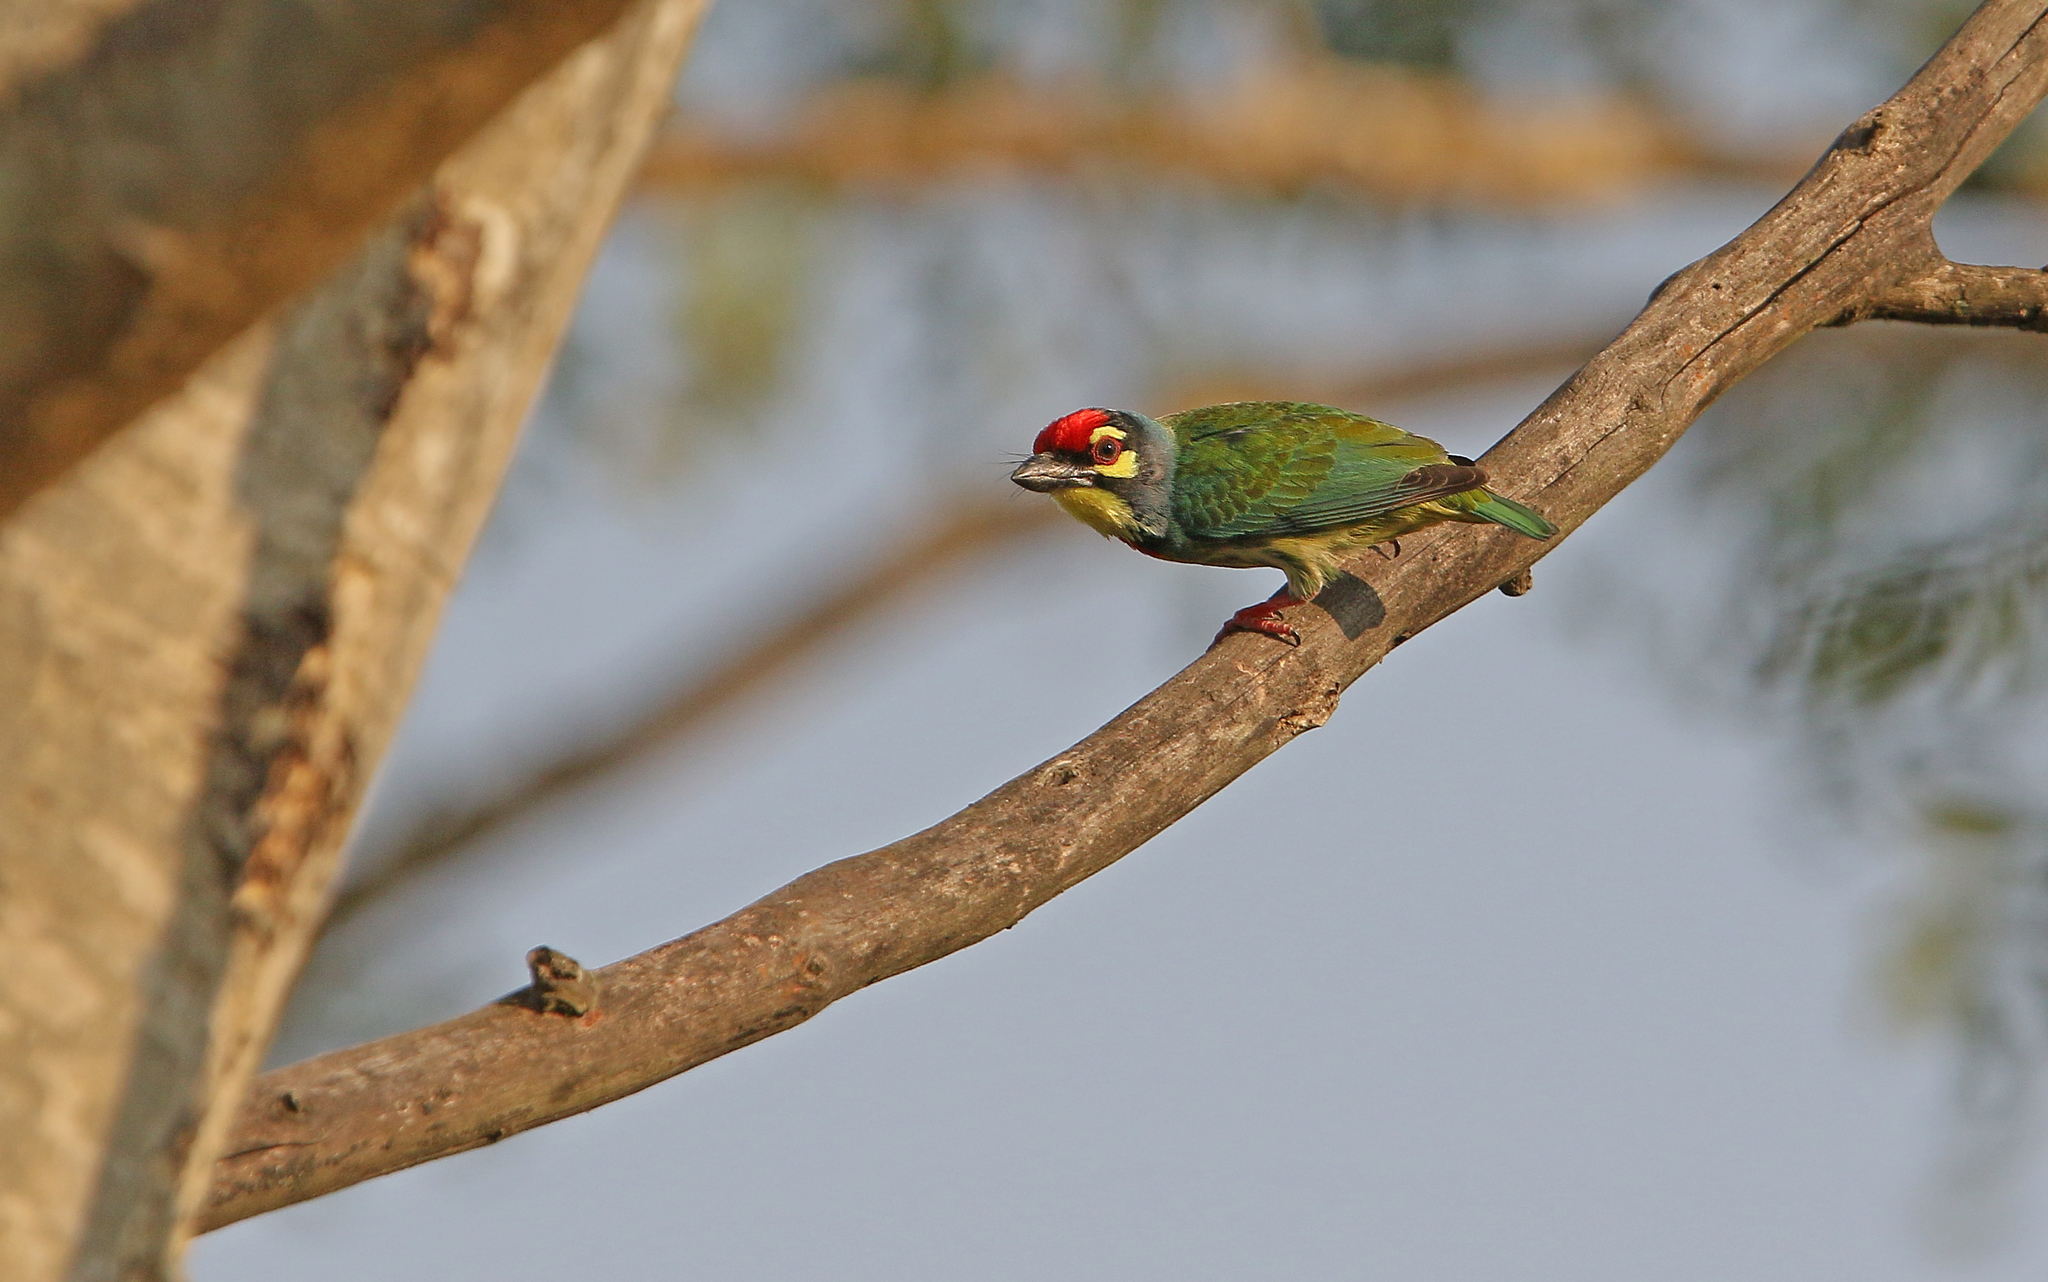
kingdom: Animalia
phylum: Chordata
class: Aves
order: Piciformes
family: Megalaimidae
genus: Psilopogon
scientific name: Psilopogon haemacephalus
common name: Coppersmith barbet
